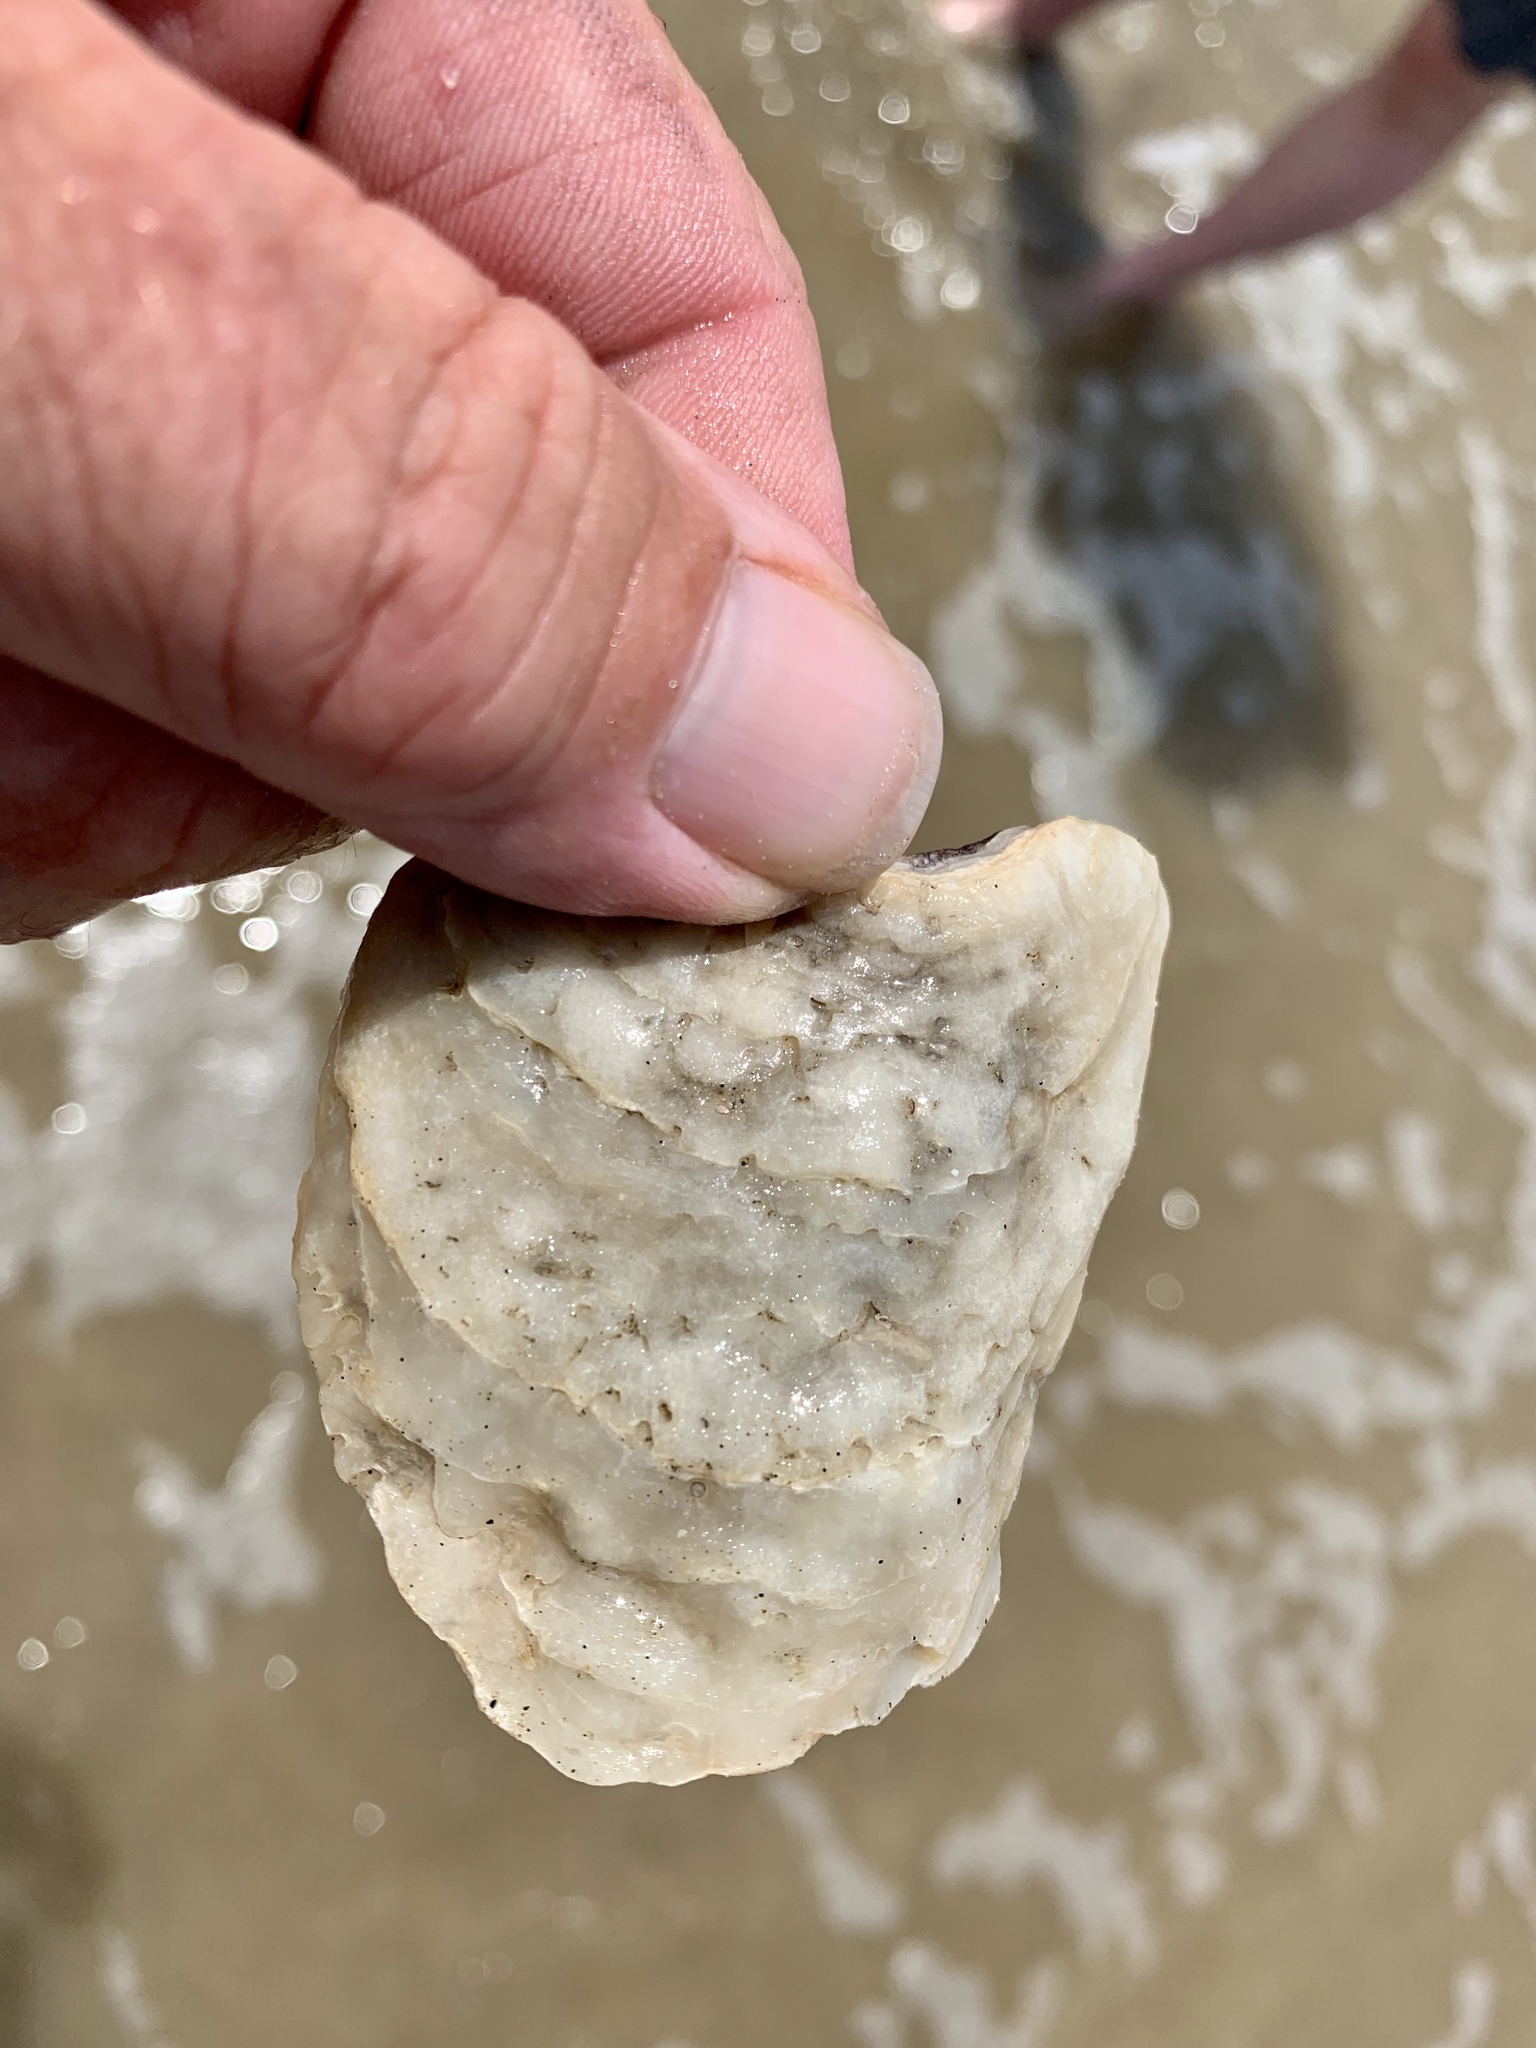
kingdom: Animalia
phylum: Mollusca
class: Bivalvia
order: Ostreida
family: Ostreidae
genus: Crassostrea
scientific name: Crassostrea virginica
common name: American oyster
